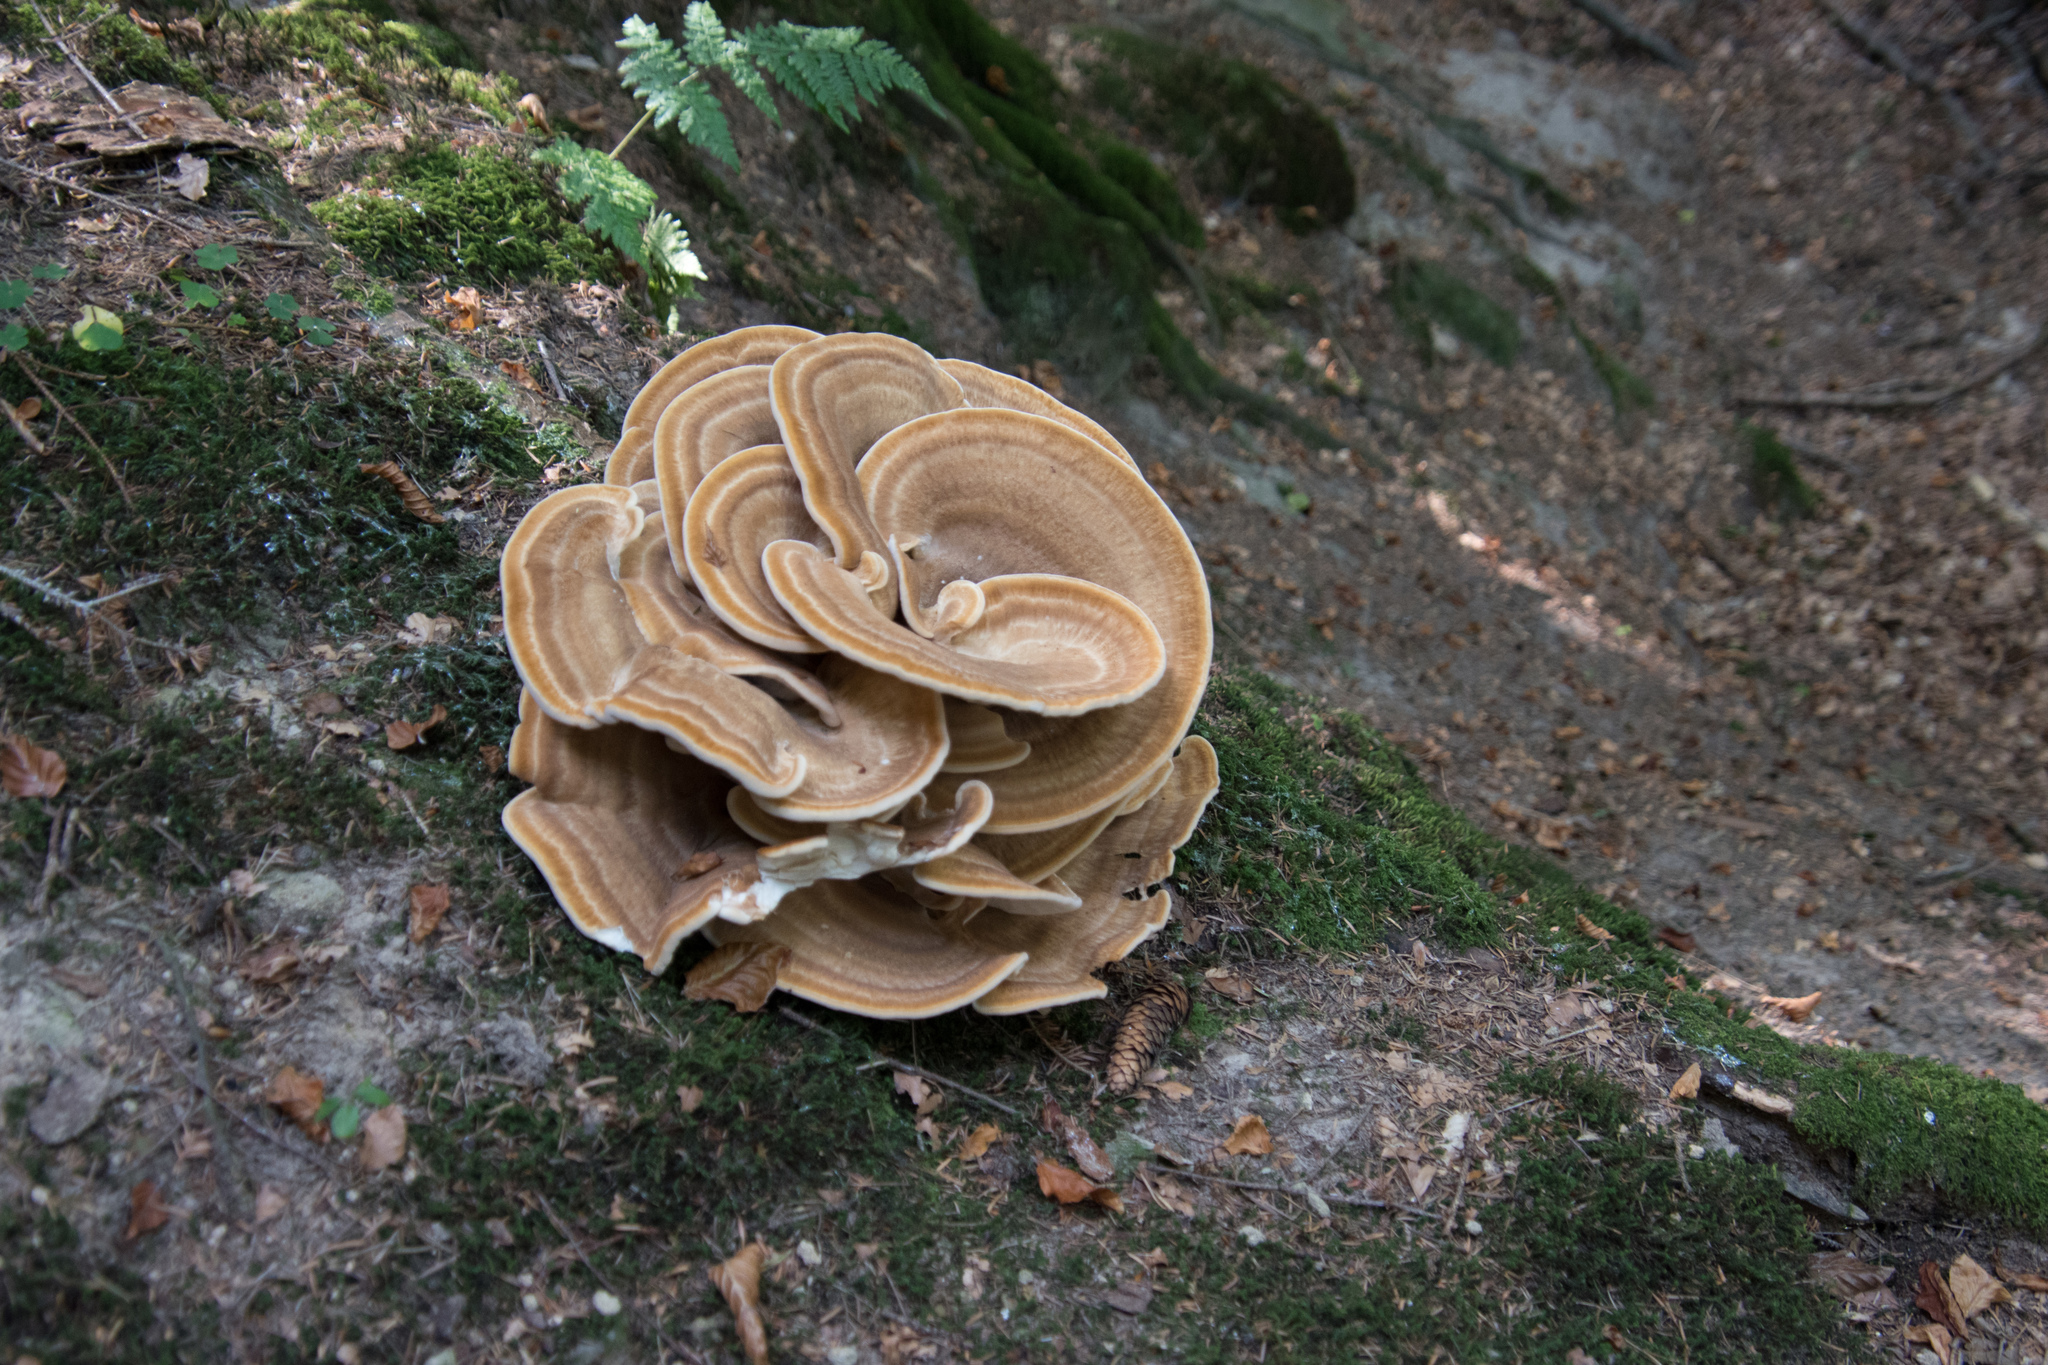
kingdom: Fungi
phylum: Basidiomycota
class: Agaricomycetes
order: Polyporales
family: Meripilaceae
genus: Meripilus
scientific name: Meripilus giganteus
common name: Giant polypore
